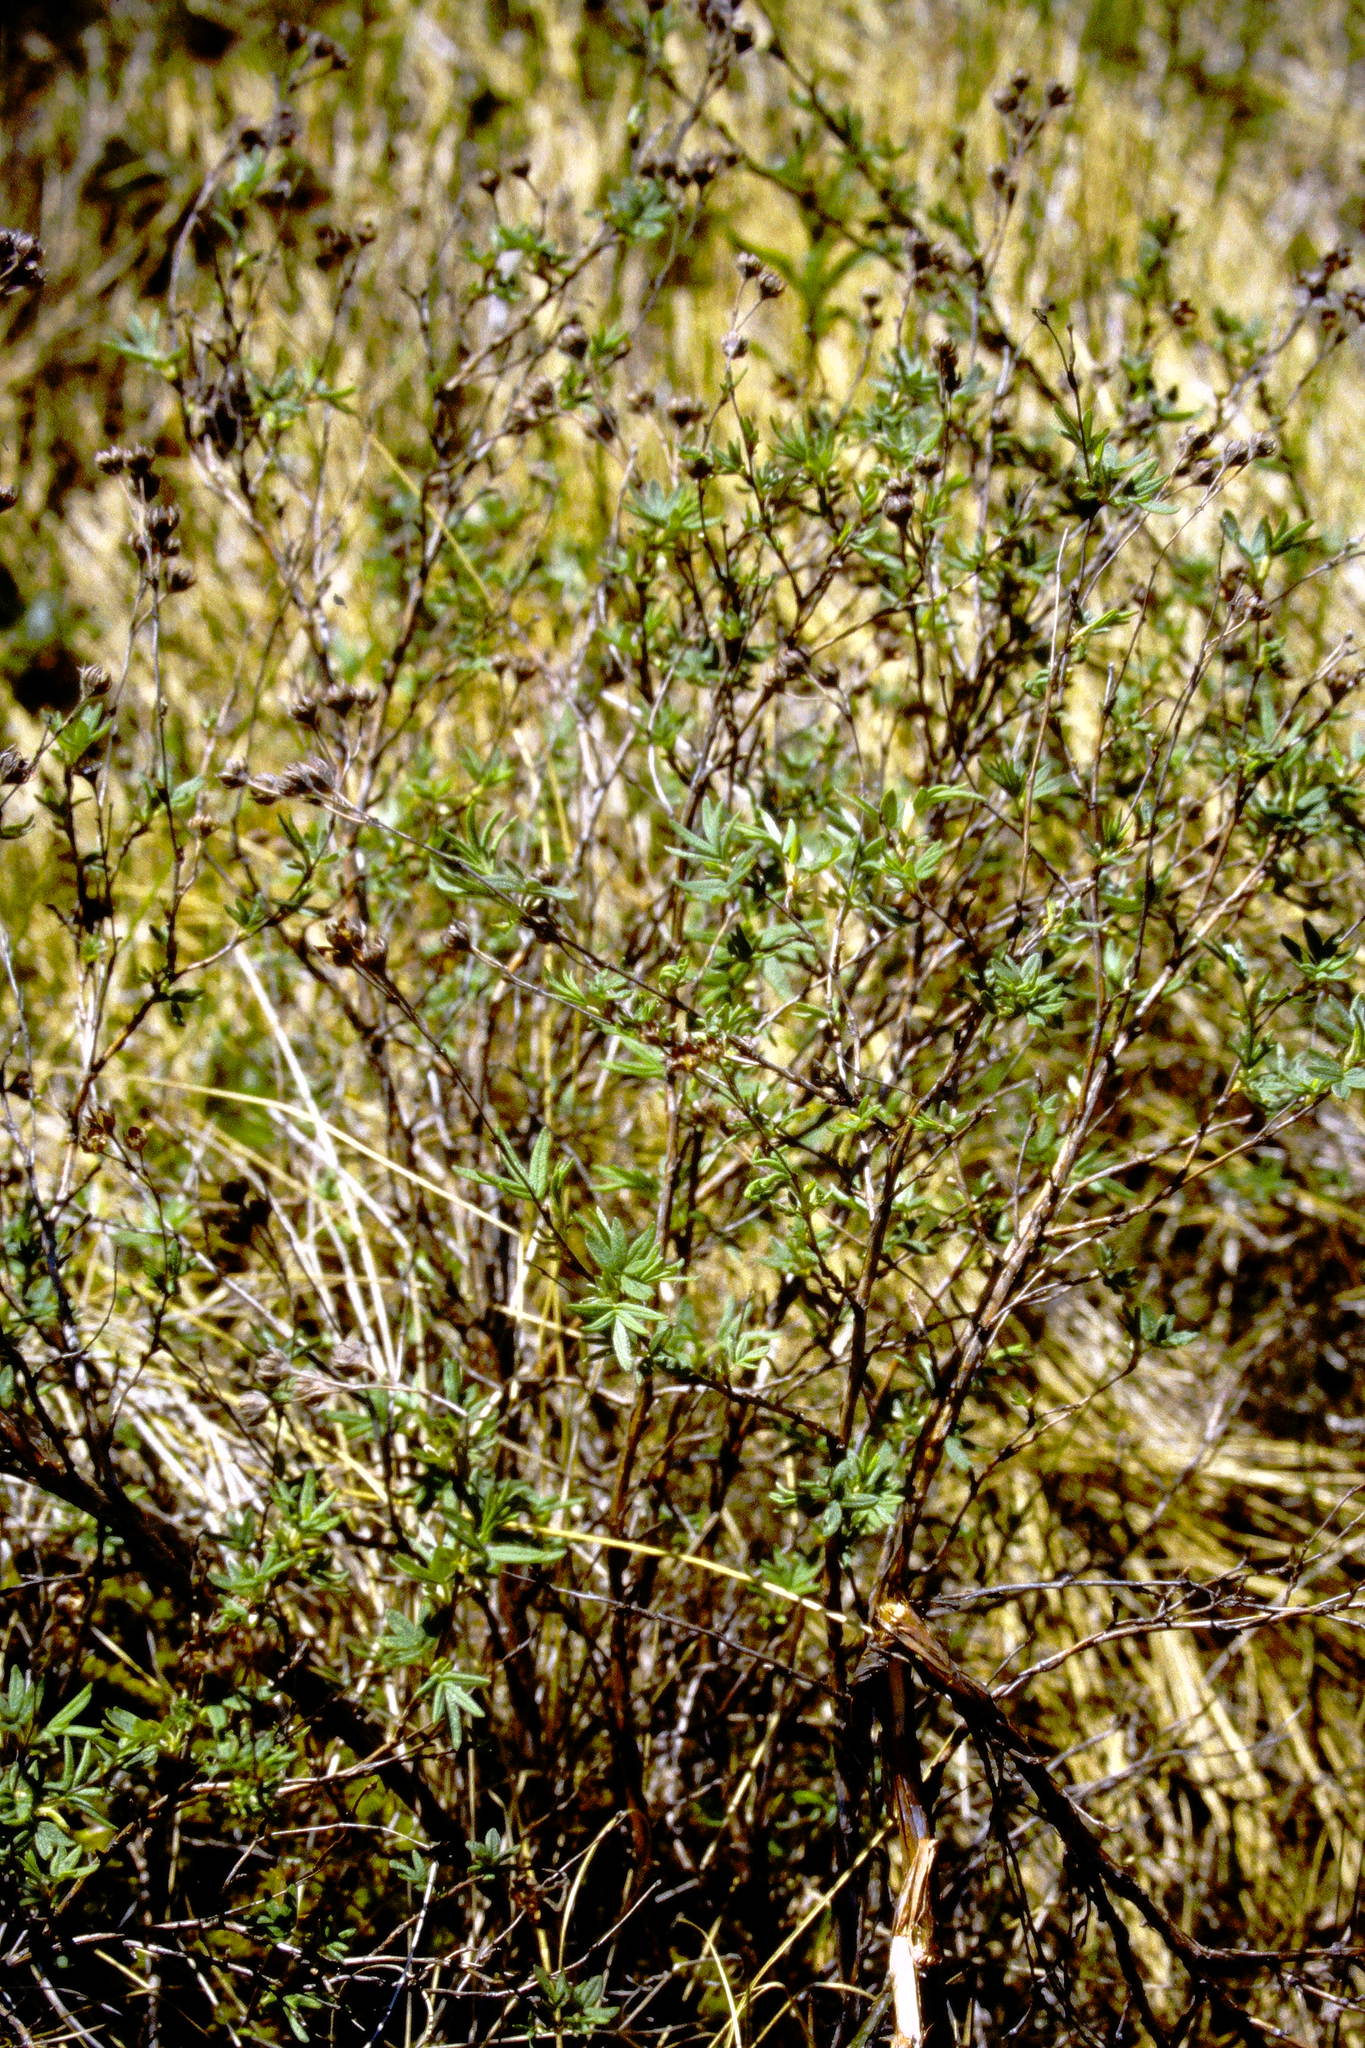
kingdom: Plantae
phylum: Tracheophyta
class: Magnoliopsida
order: Rosales
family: Rosaceae
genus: Dasiphora
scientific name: Dasiphora fruticosa
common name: Shrubby cinquefoil
